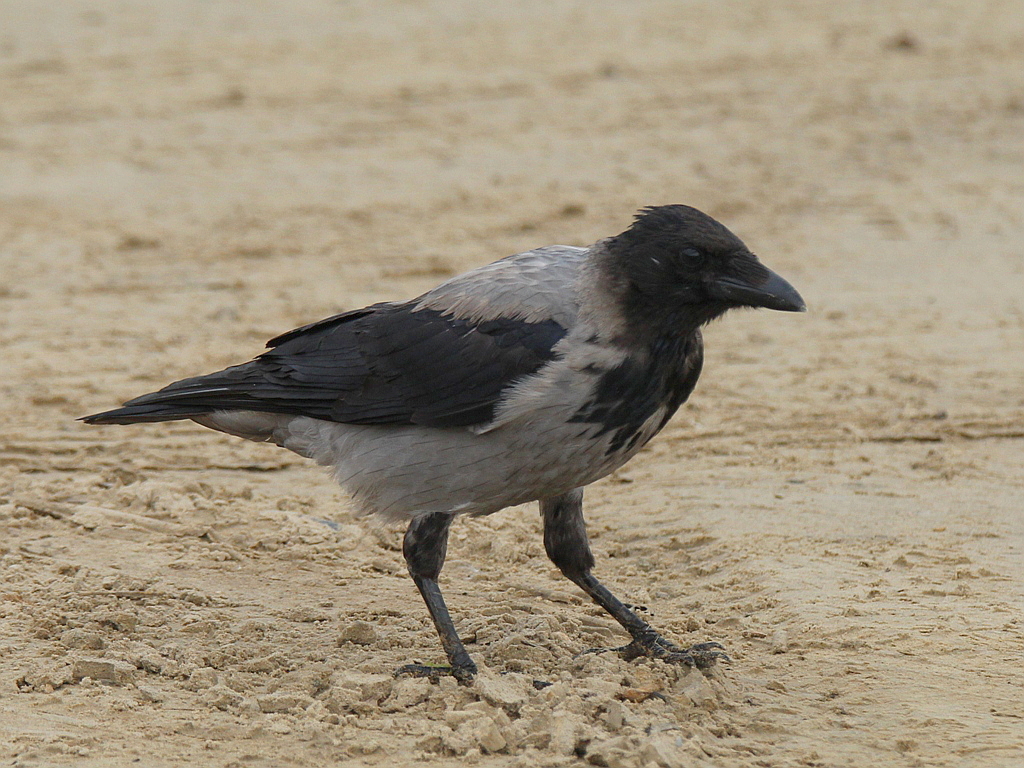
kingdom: Animalia
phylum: Chordata
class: Aves
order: Passeriformes
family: Corvidae
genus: Corvus
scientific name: Corvus cornix
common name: Hooded crow
